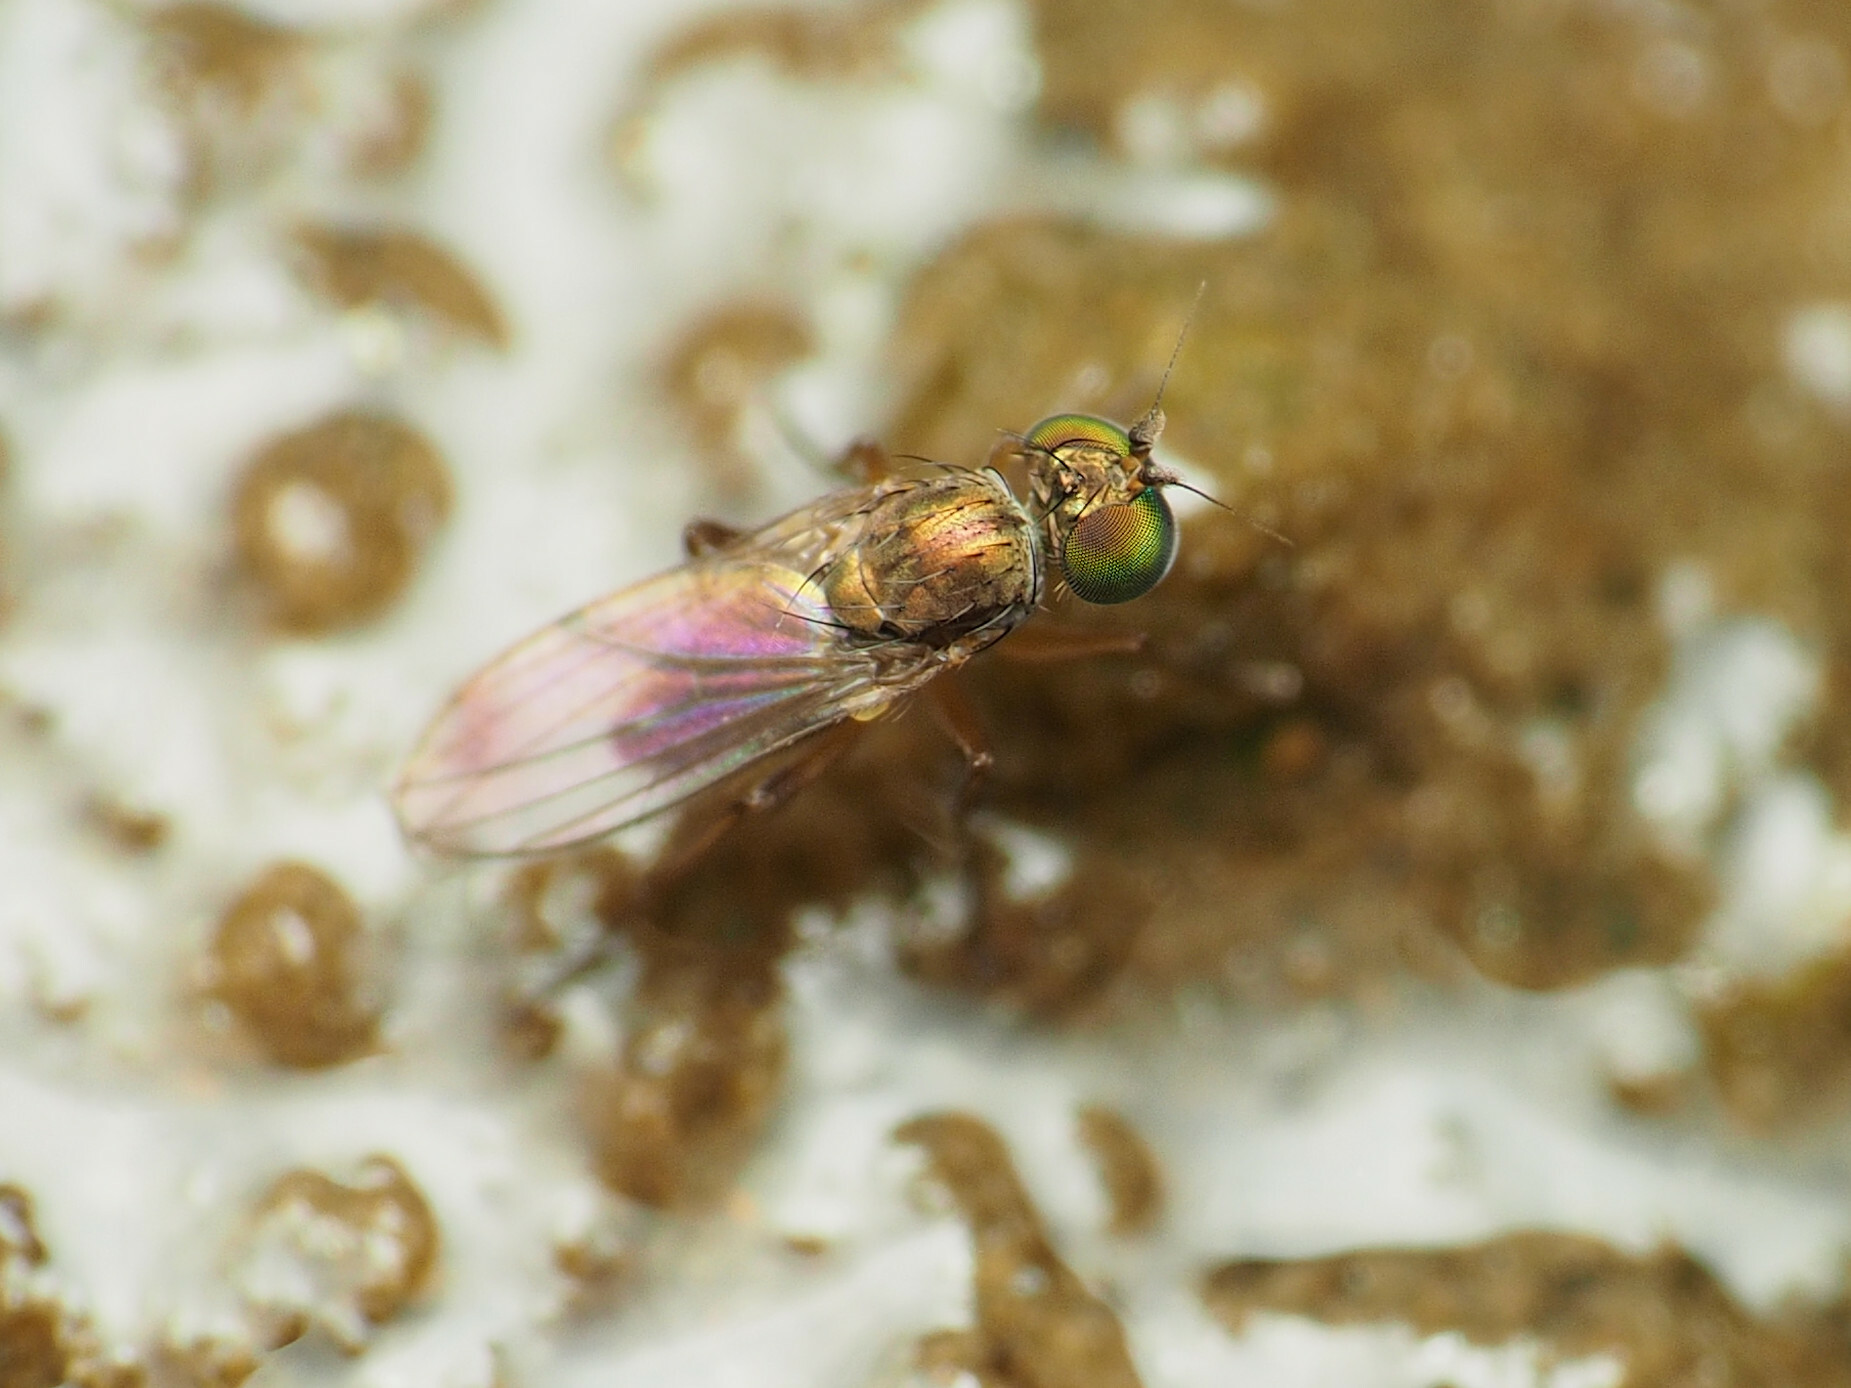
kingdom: Animalia
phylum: Arthropoda
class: Insecta
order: Diptera
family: Dolichopodidae
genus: Chrysotus
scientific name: Chrysotus picticornis
